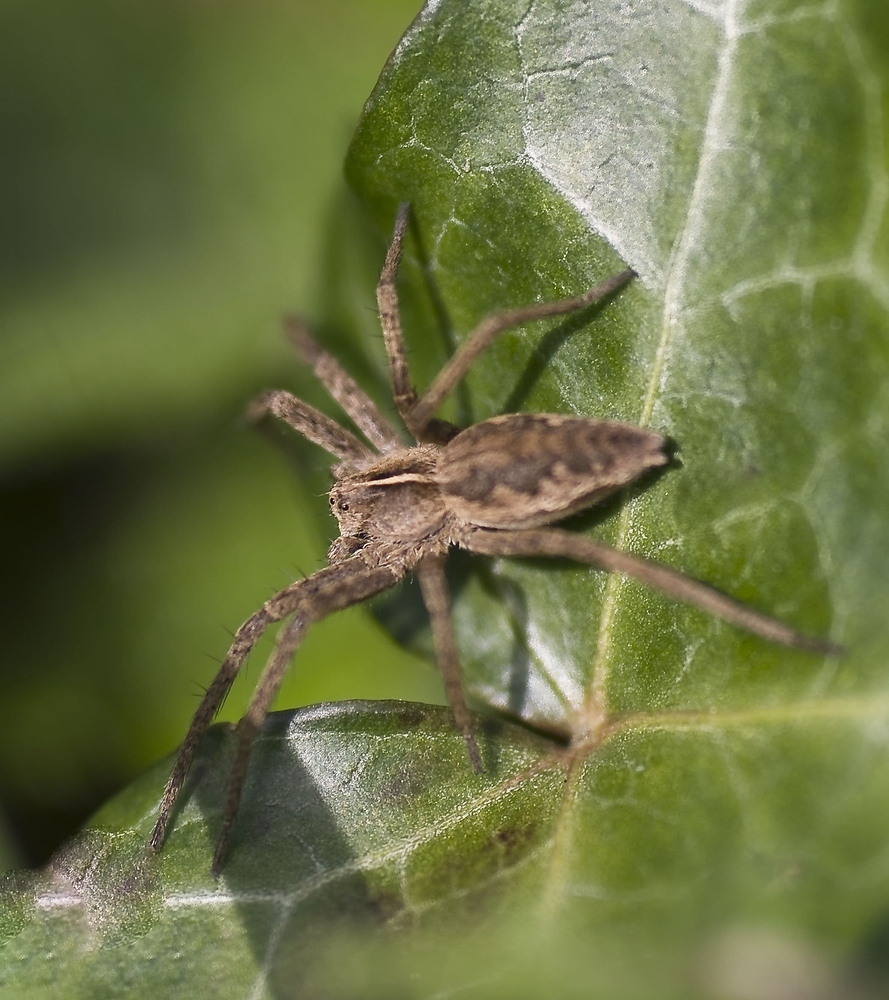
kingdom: Animalia
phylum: Arthropoda
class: Arachnida
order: Araneae
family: Pisauridae
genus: Pisaura
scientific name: Pisaura mirabilis
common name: Tent spider
